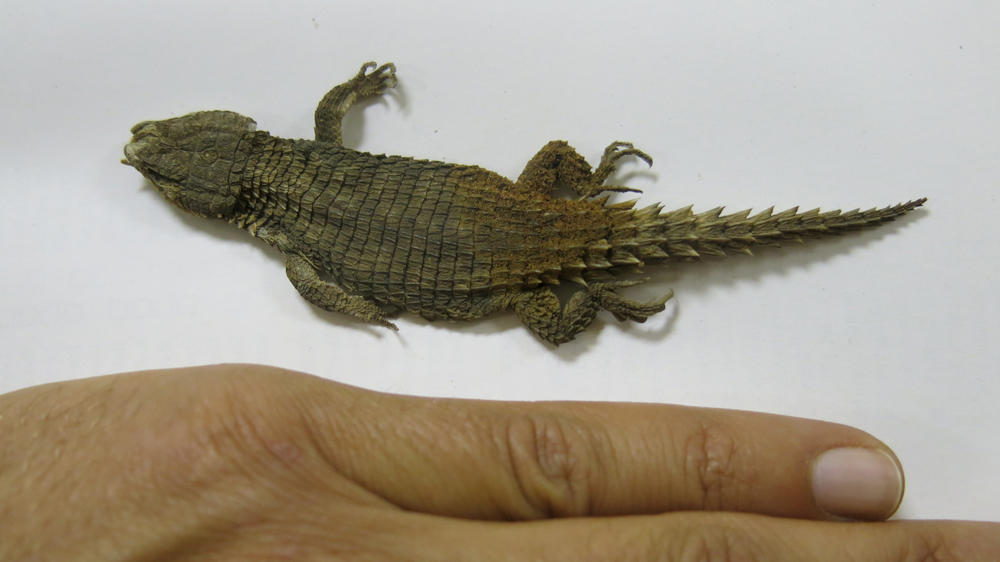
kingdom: Animalia
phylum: Chordata
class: Squamata
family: Cordylidae
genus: Cordylus
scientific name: Cordylus jonesii
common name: Jones' girdled lizard
